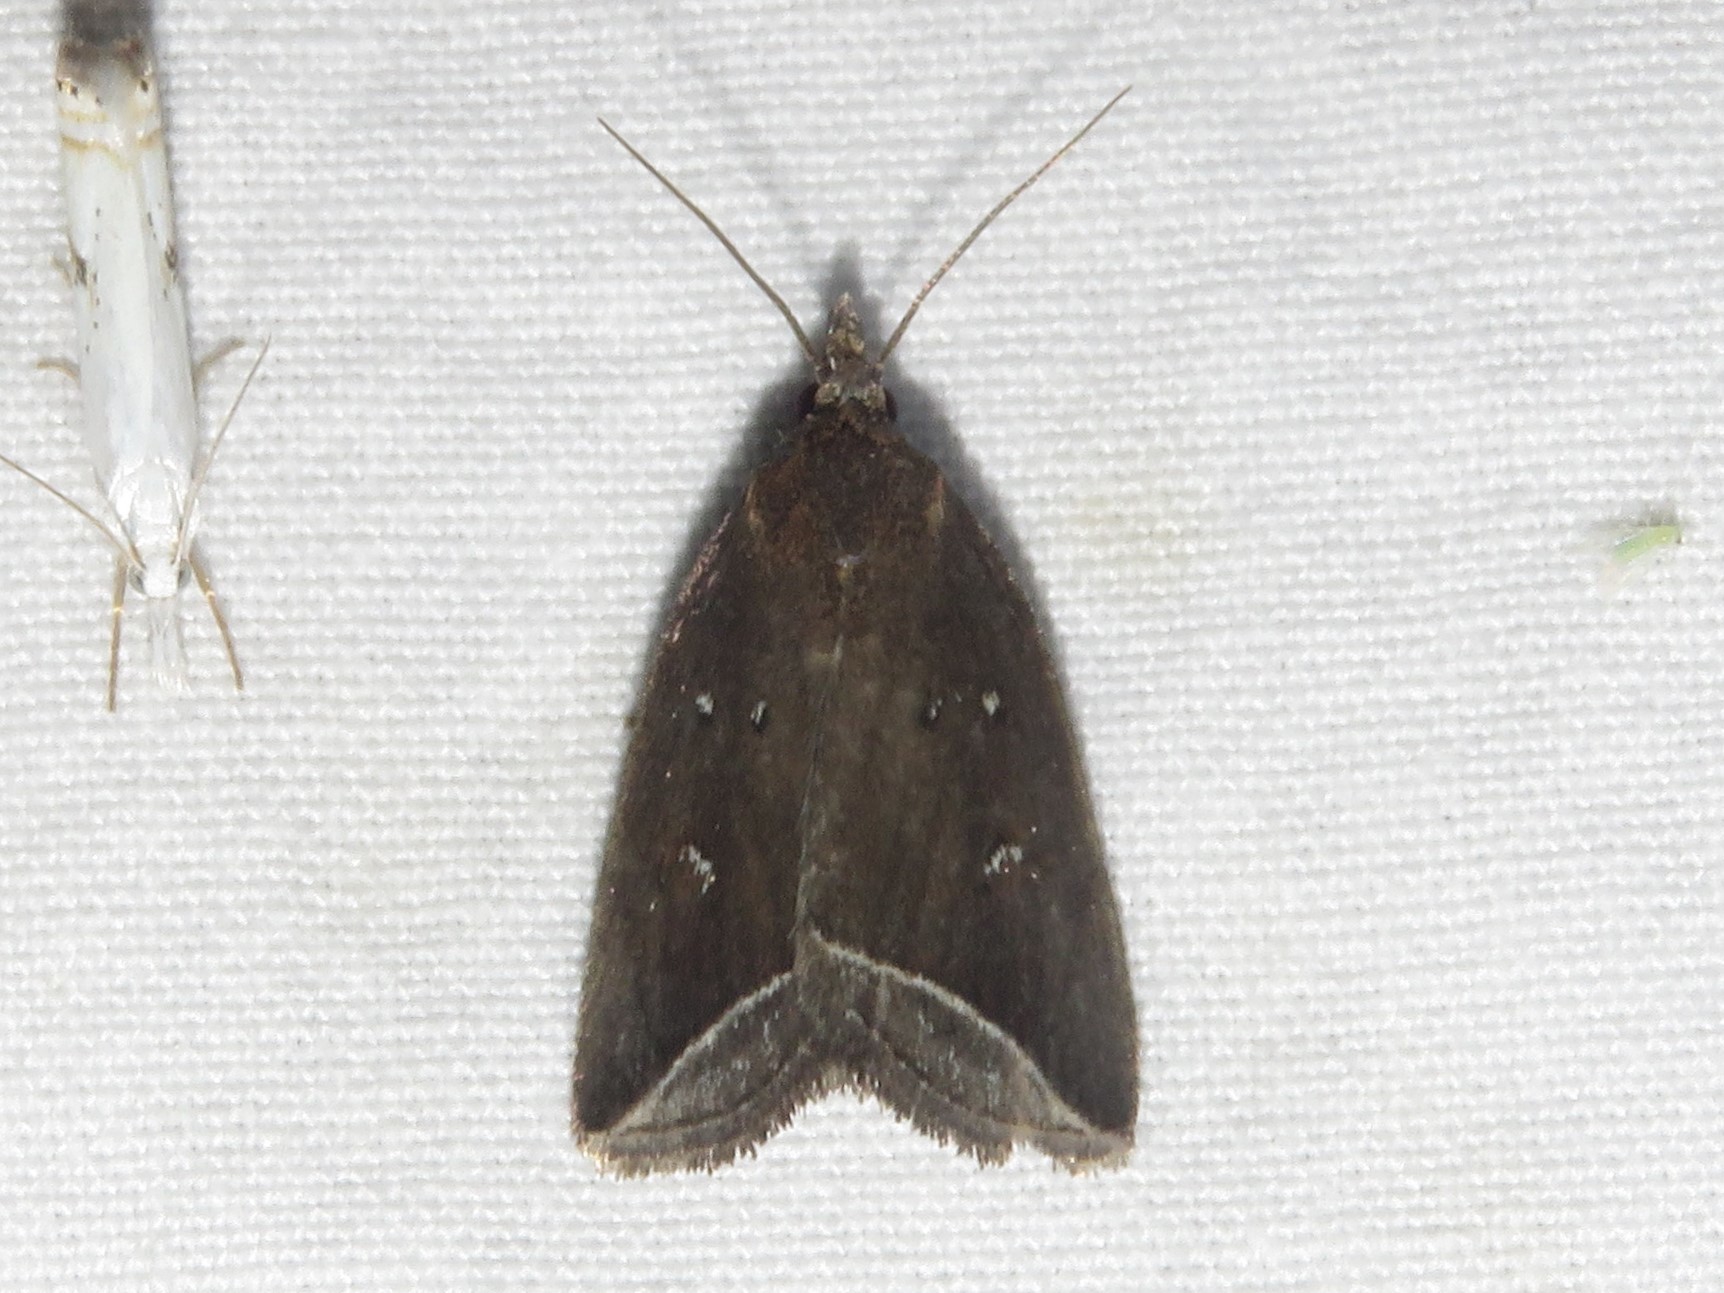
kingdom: Animalia
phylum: Arthropoda
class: Insecta
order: Lepidoptera
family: Erebidae
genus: Capis
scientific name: Capis curvata
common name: Curved halter moth
